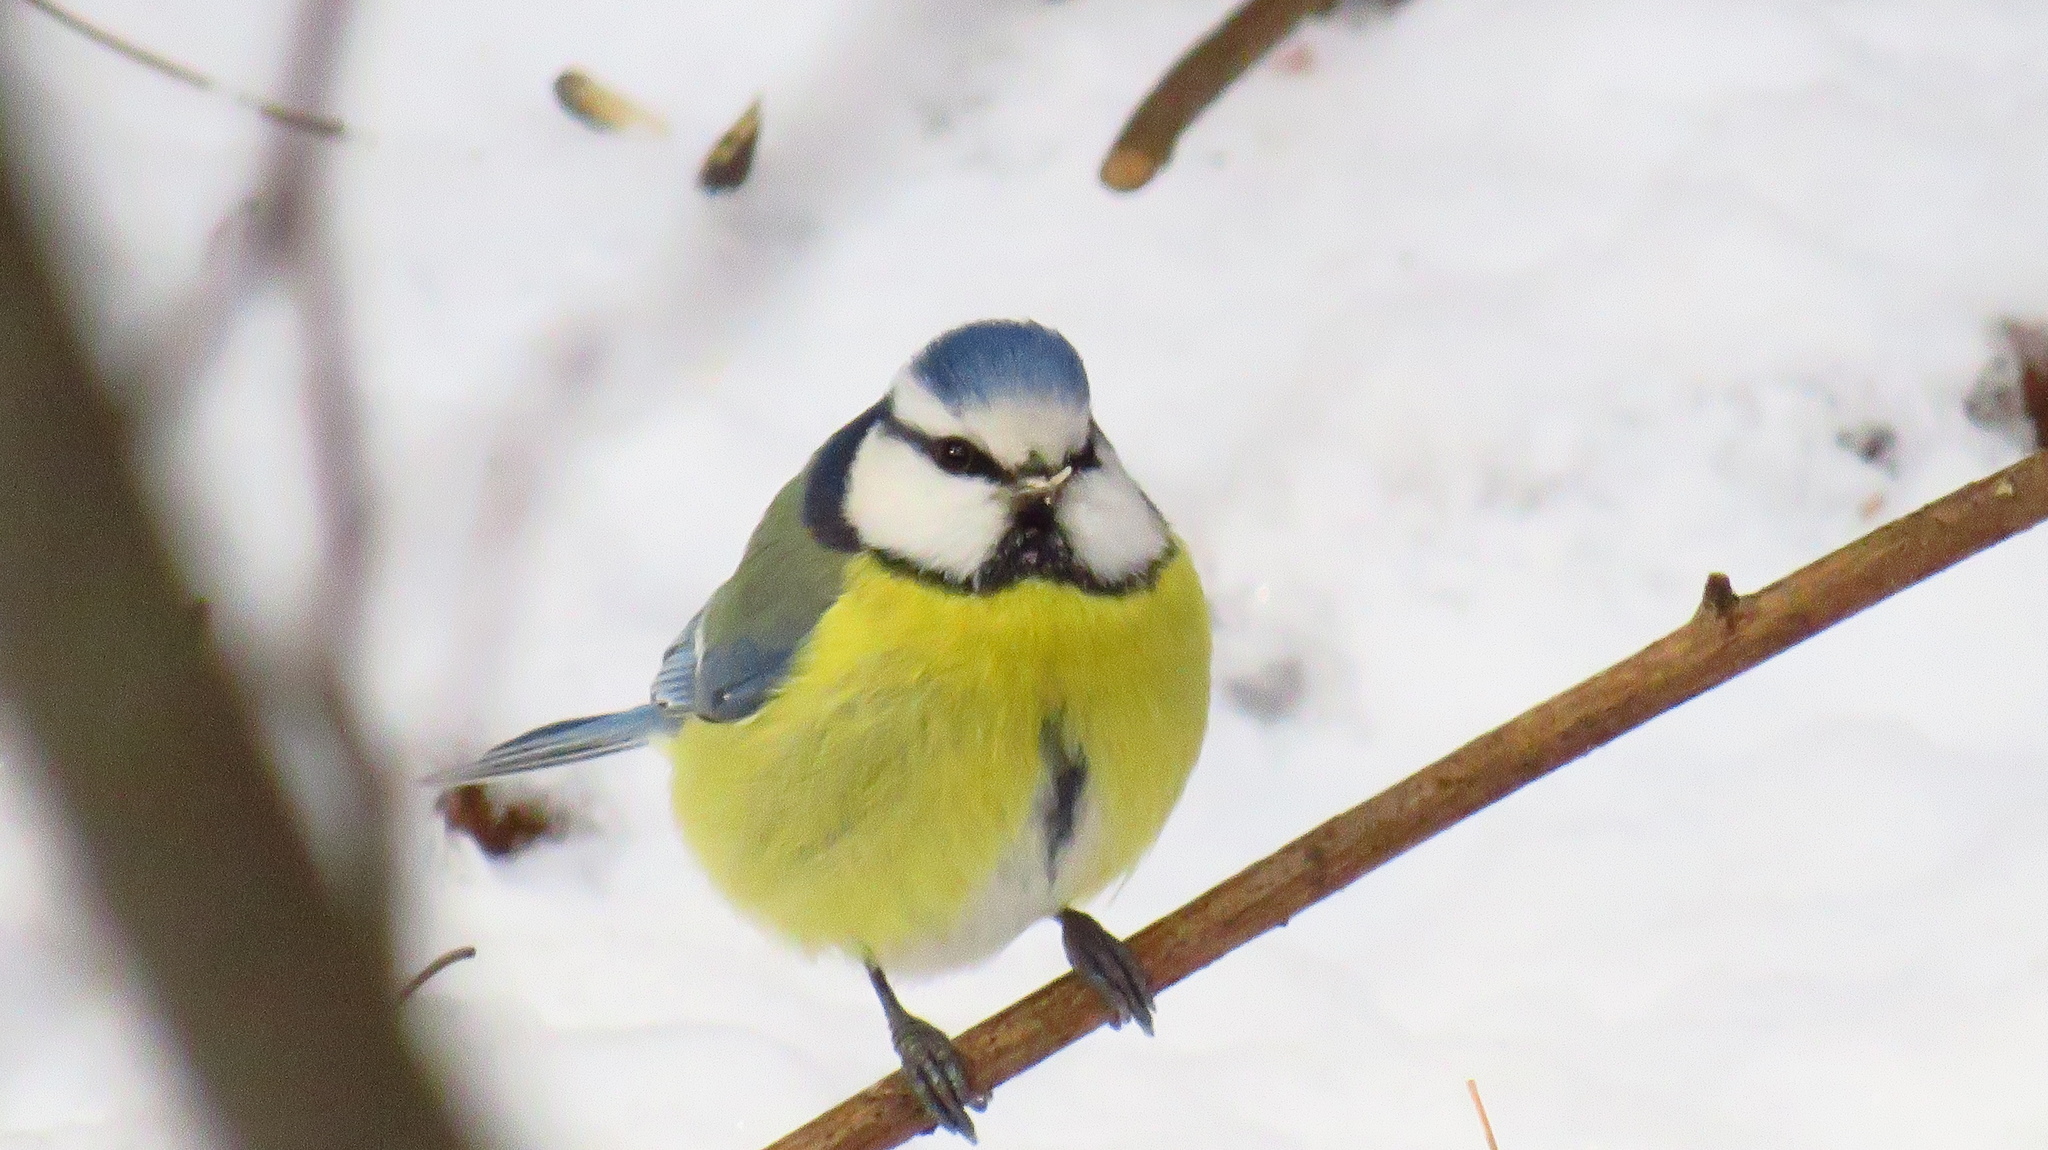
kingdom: Animalia
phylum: Chordata
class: Aves
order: Passeriformes
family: Paridae
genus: Cyanistes
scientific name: Cyanistes caeruleus
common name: Eurasian blue tit
